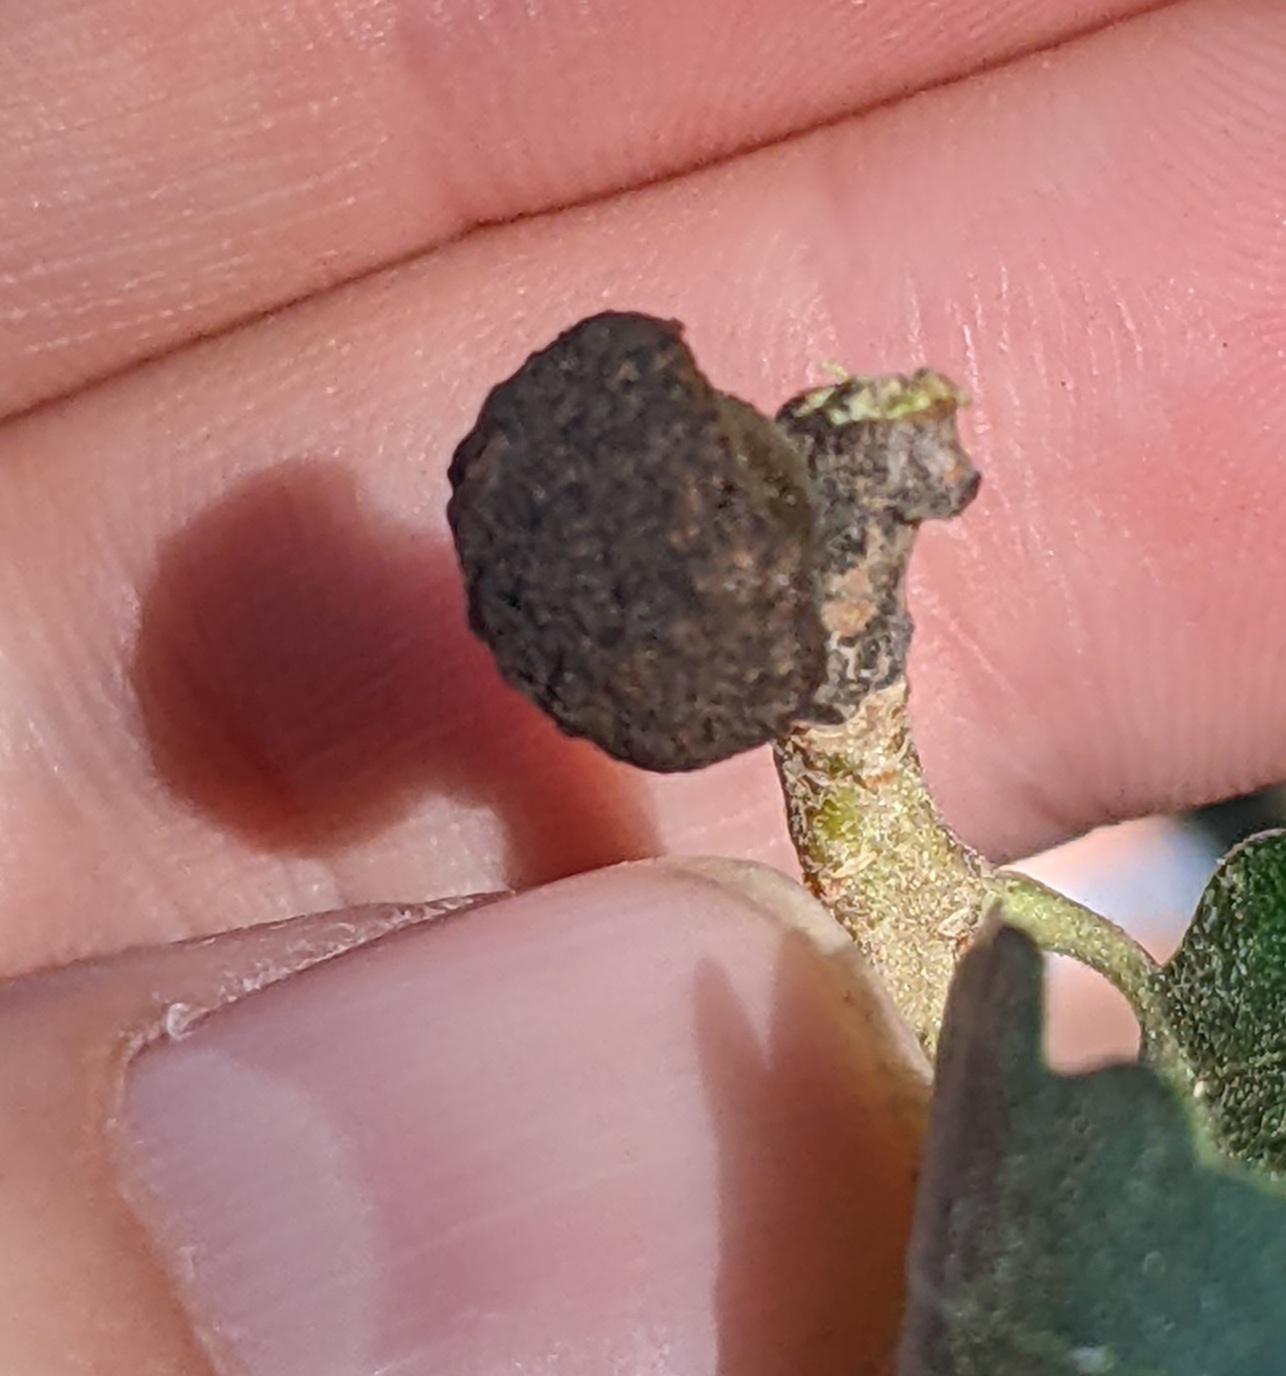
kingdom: Animalia
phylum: Arthropoda
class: Insecta
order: Hymenoptera
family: Cynipidae
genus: Disholcaspis
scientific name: Disholcaspis
